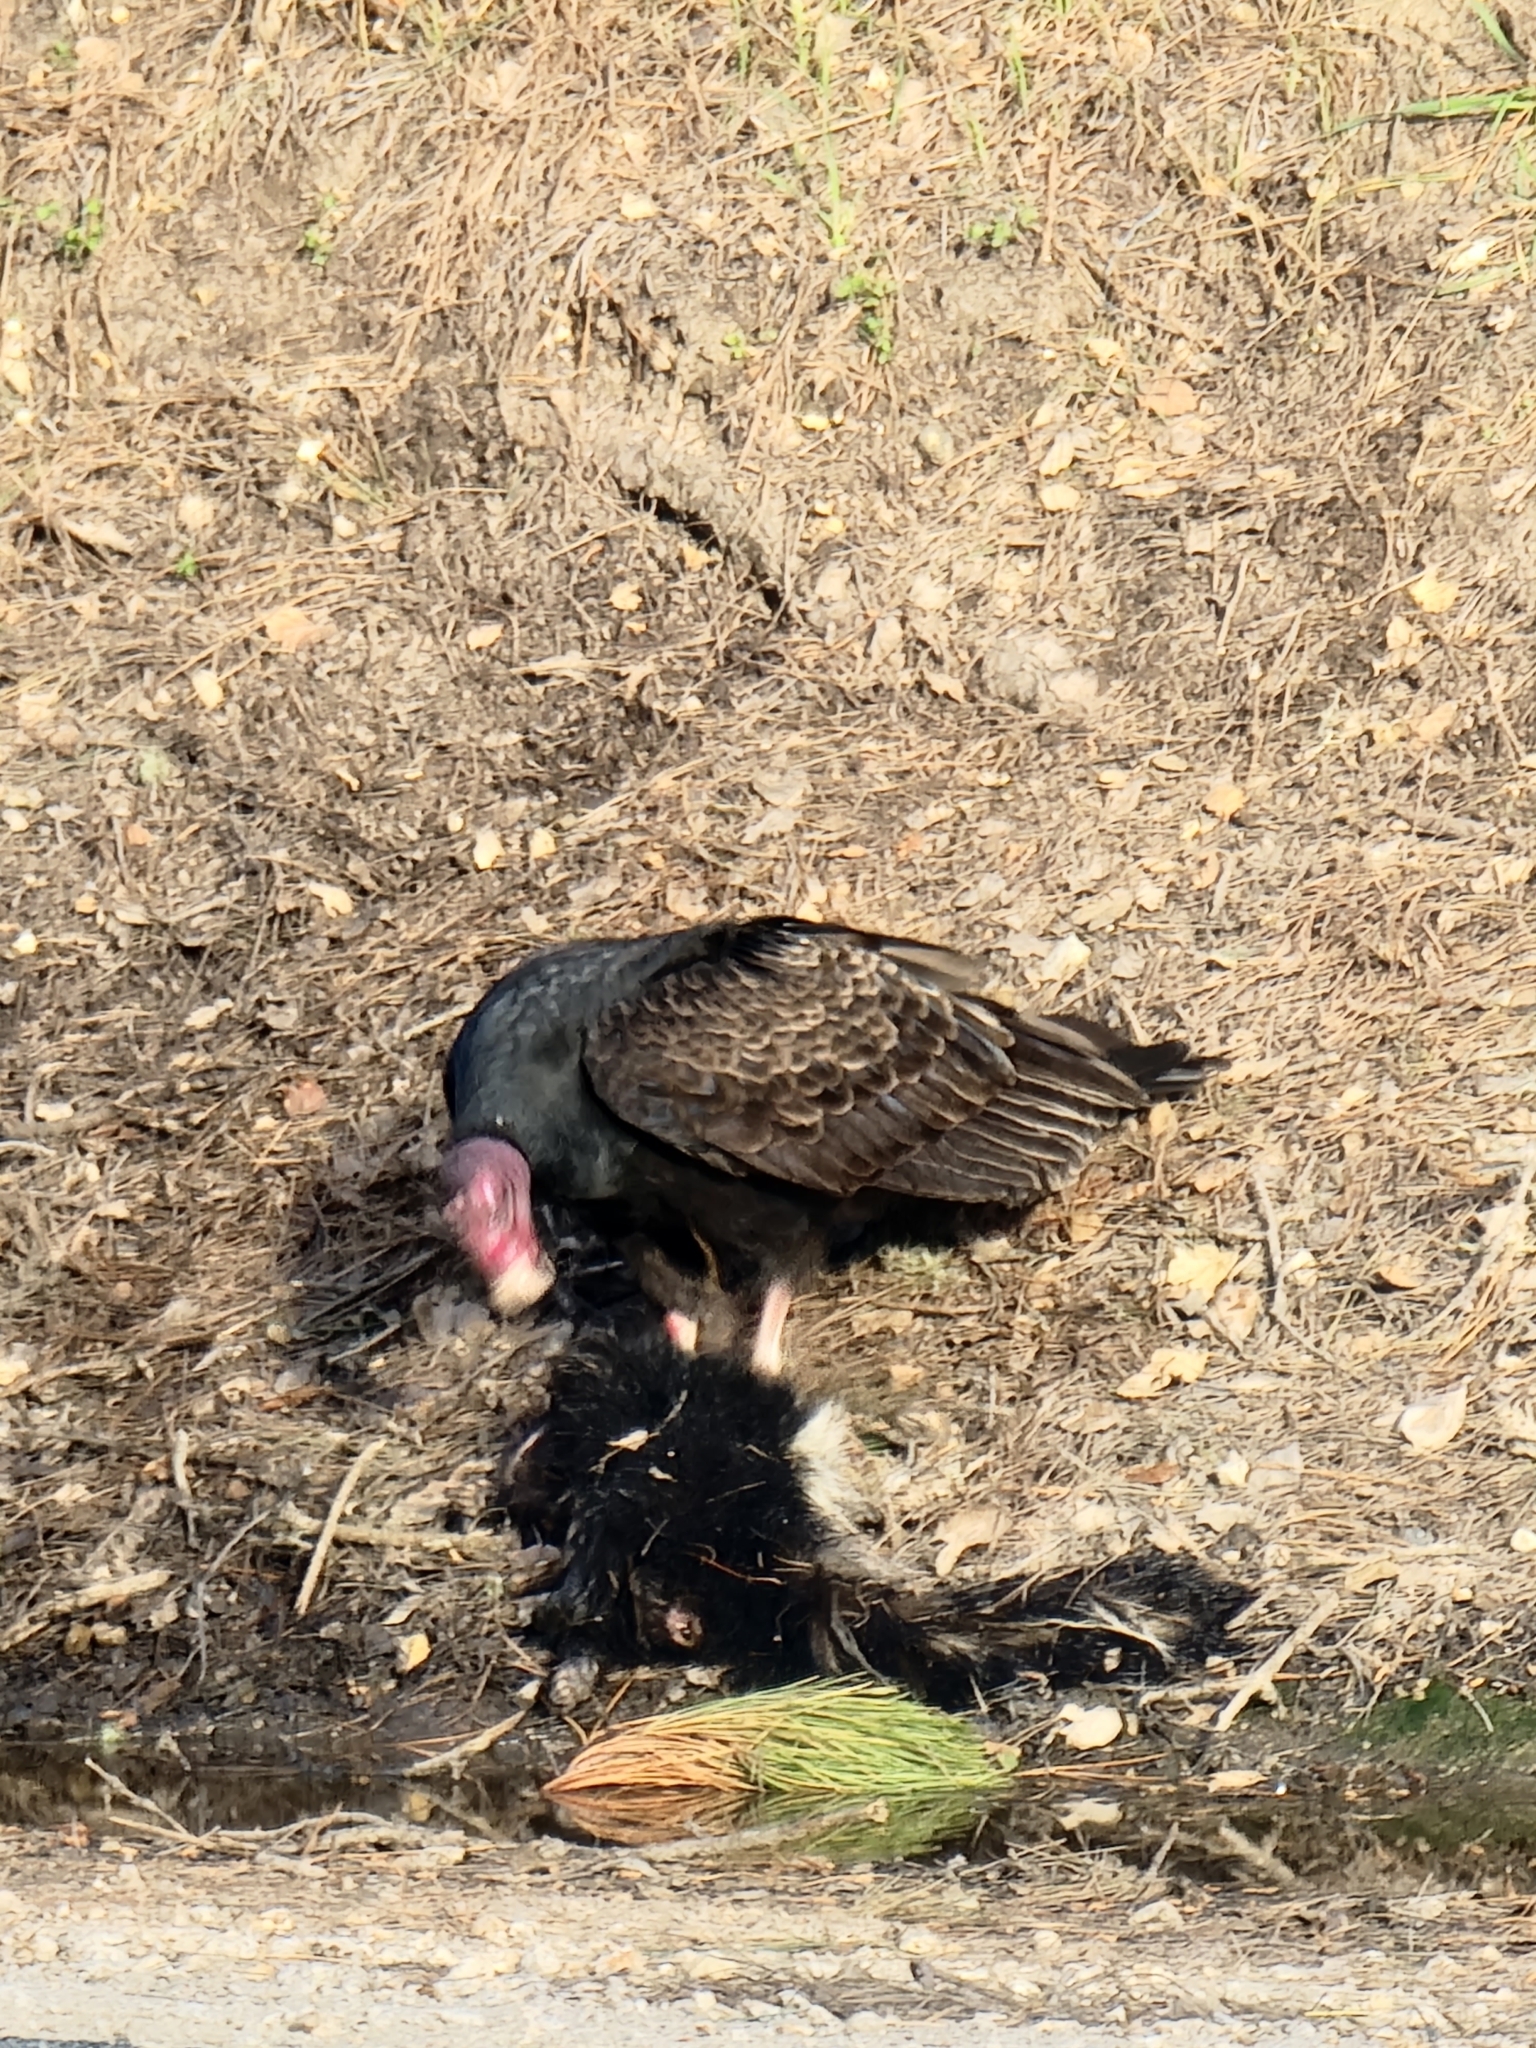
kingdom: Animalia
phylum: Chordata
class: Aves
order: Accipitriformes
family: Cathartidae
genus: Cathartes
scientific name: Cathartes aura
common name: Turkey vulture
